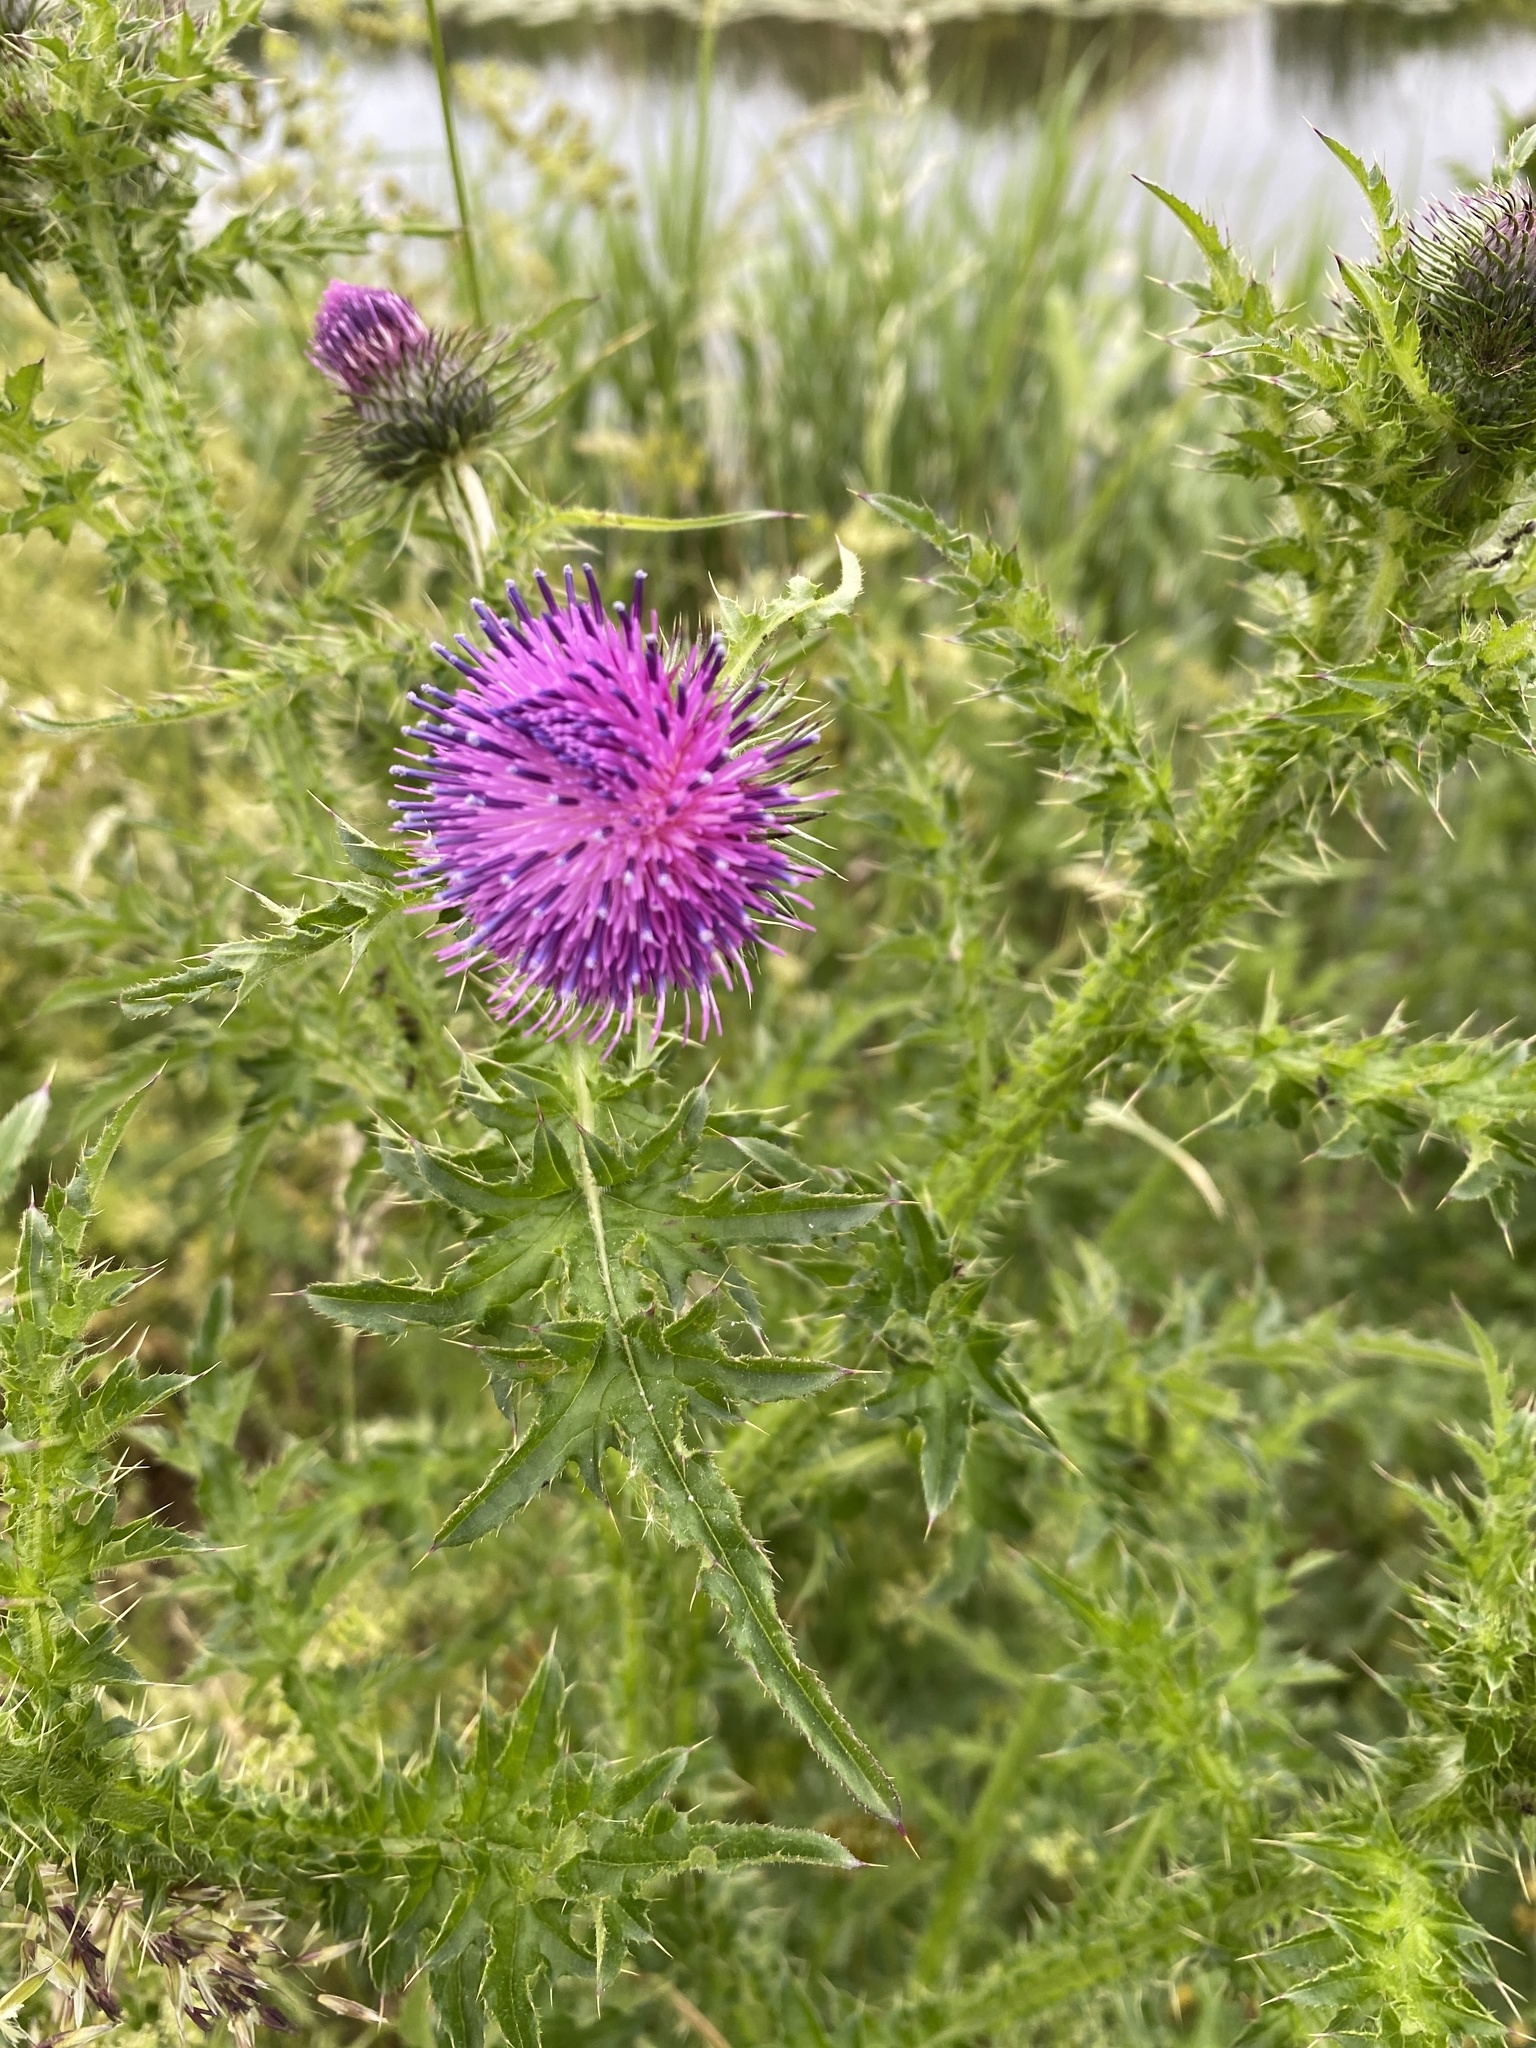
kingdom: Plantae
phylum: Tracheophyta
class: Magnoliopsida
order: Asterales
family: Asteraceae
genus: Carduus
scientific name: Carduus crispus
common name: Welted thistle
